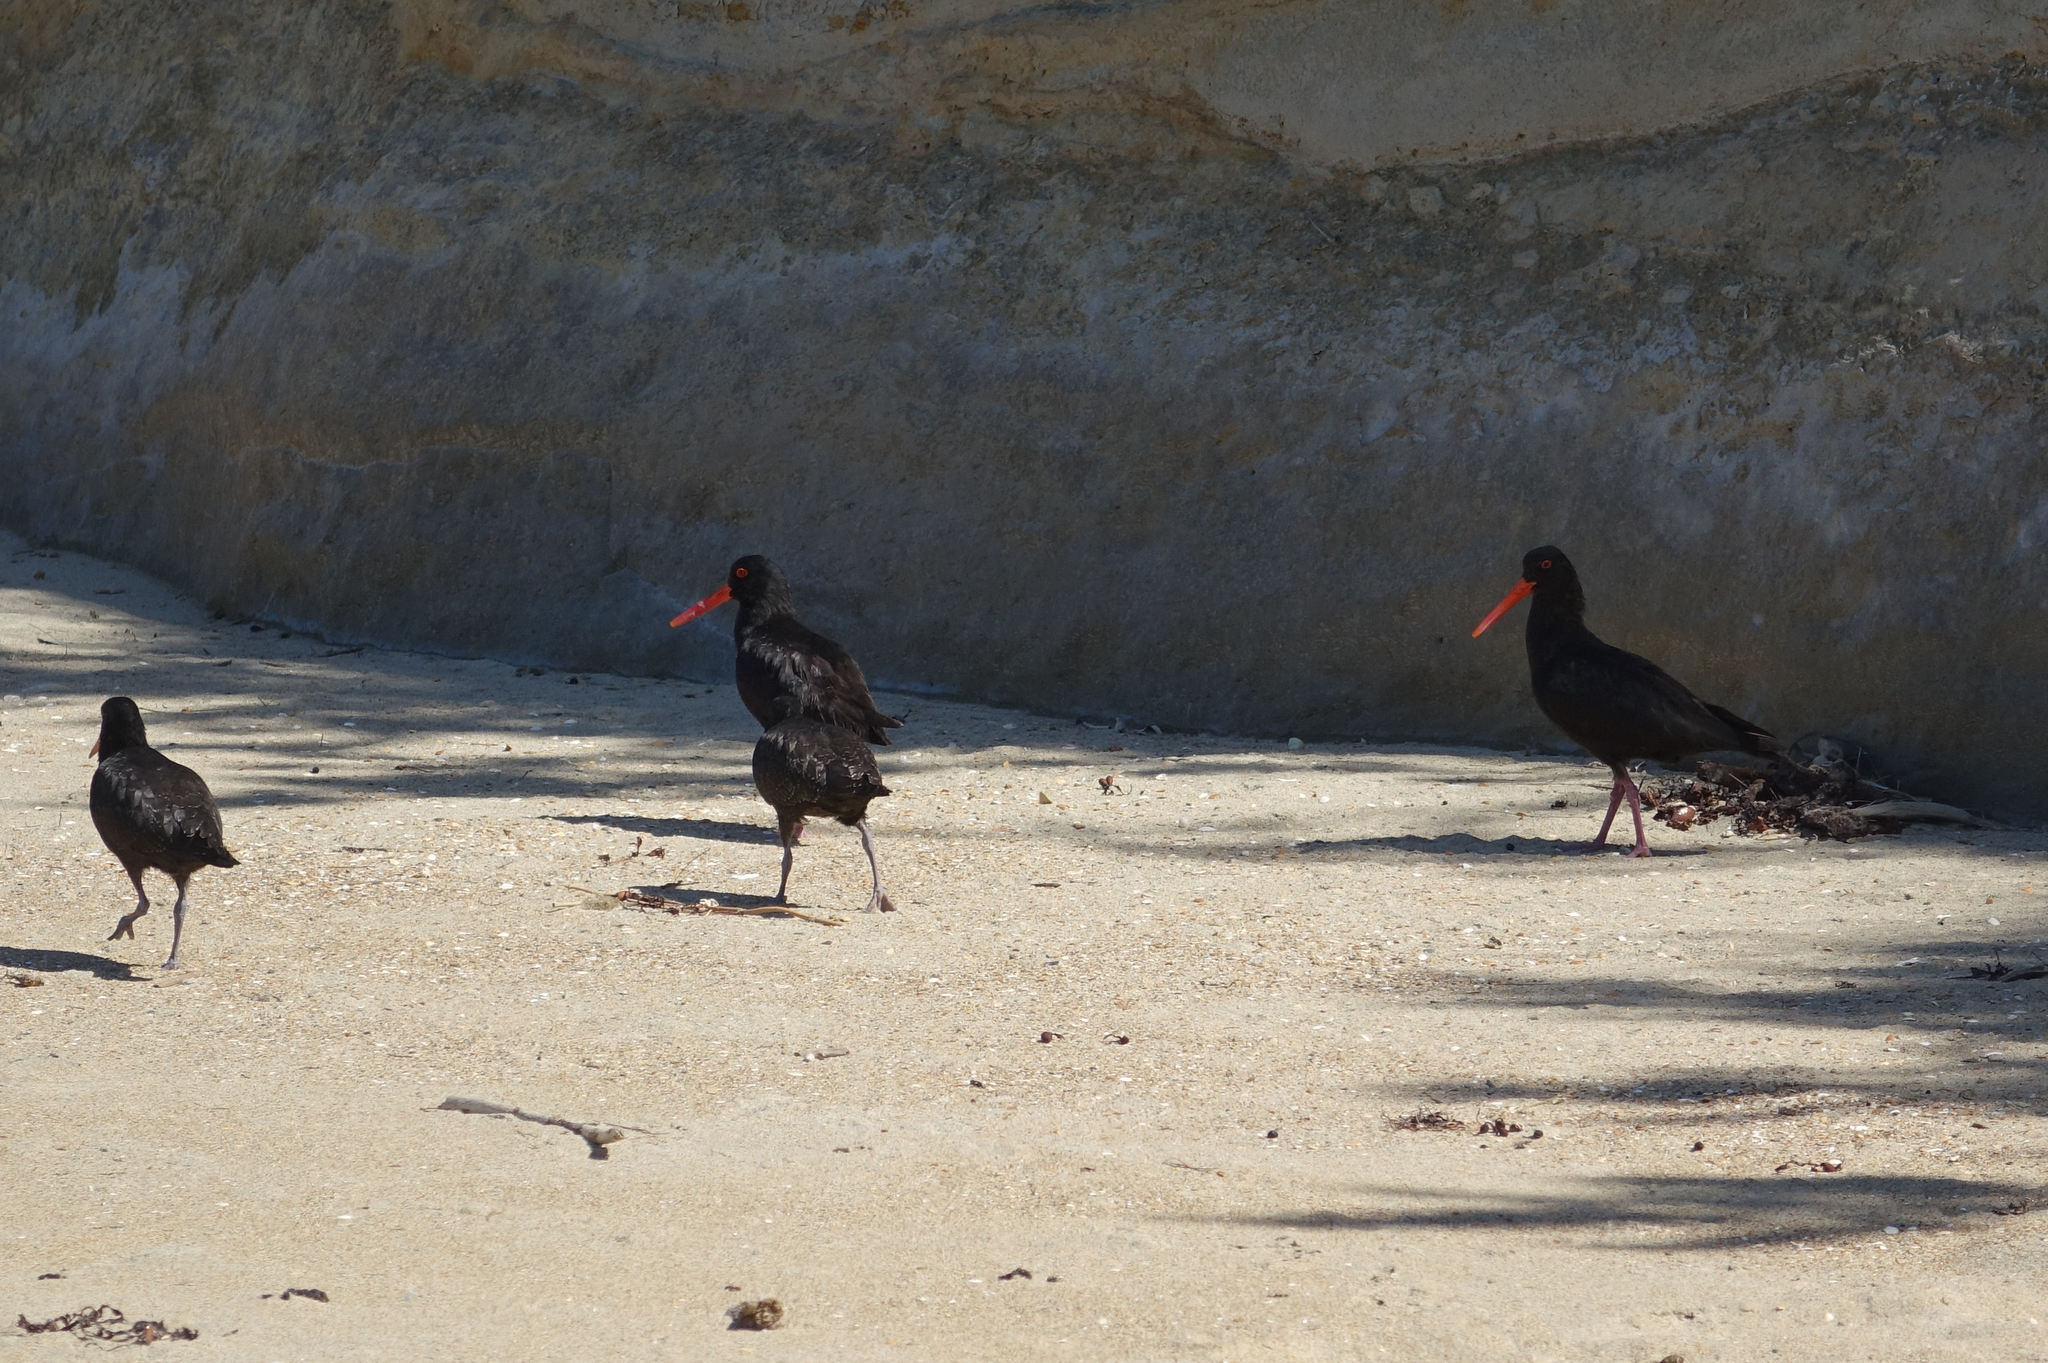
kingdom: Animalia
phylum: Chordata
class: Aves
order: Charadriiformes
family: Haematopodidae
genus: Haematopus
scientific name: Haematopus unicolor
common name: Variable oystercatcher
